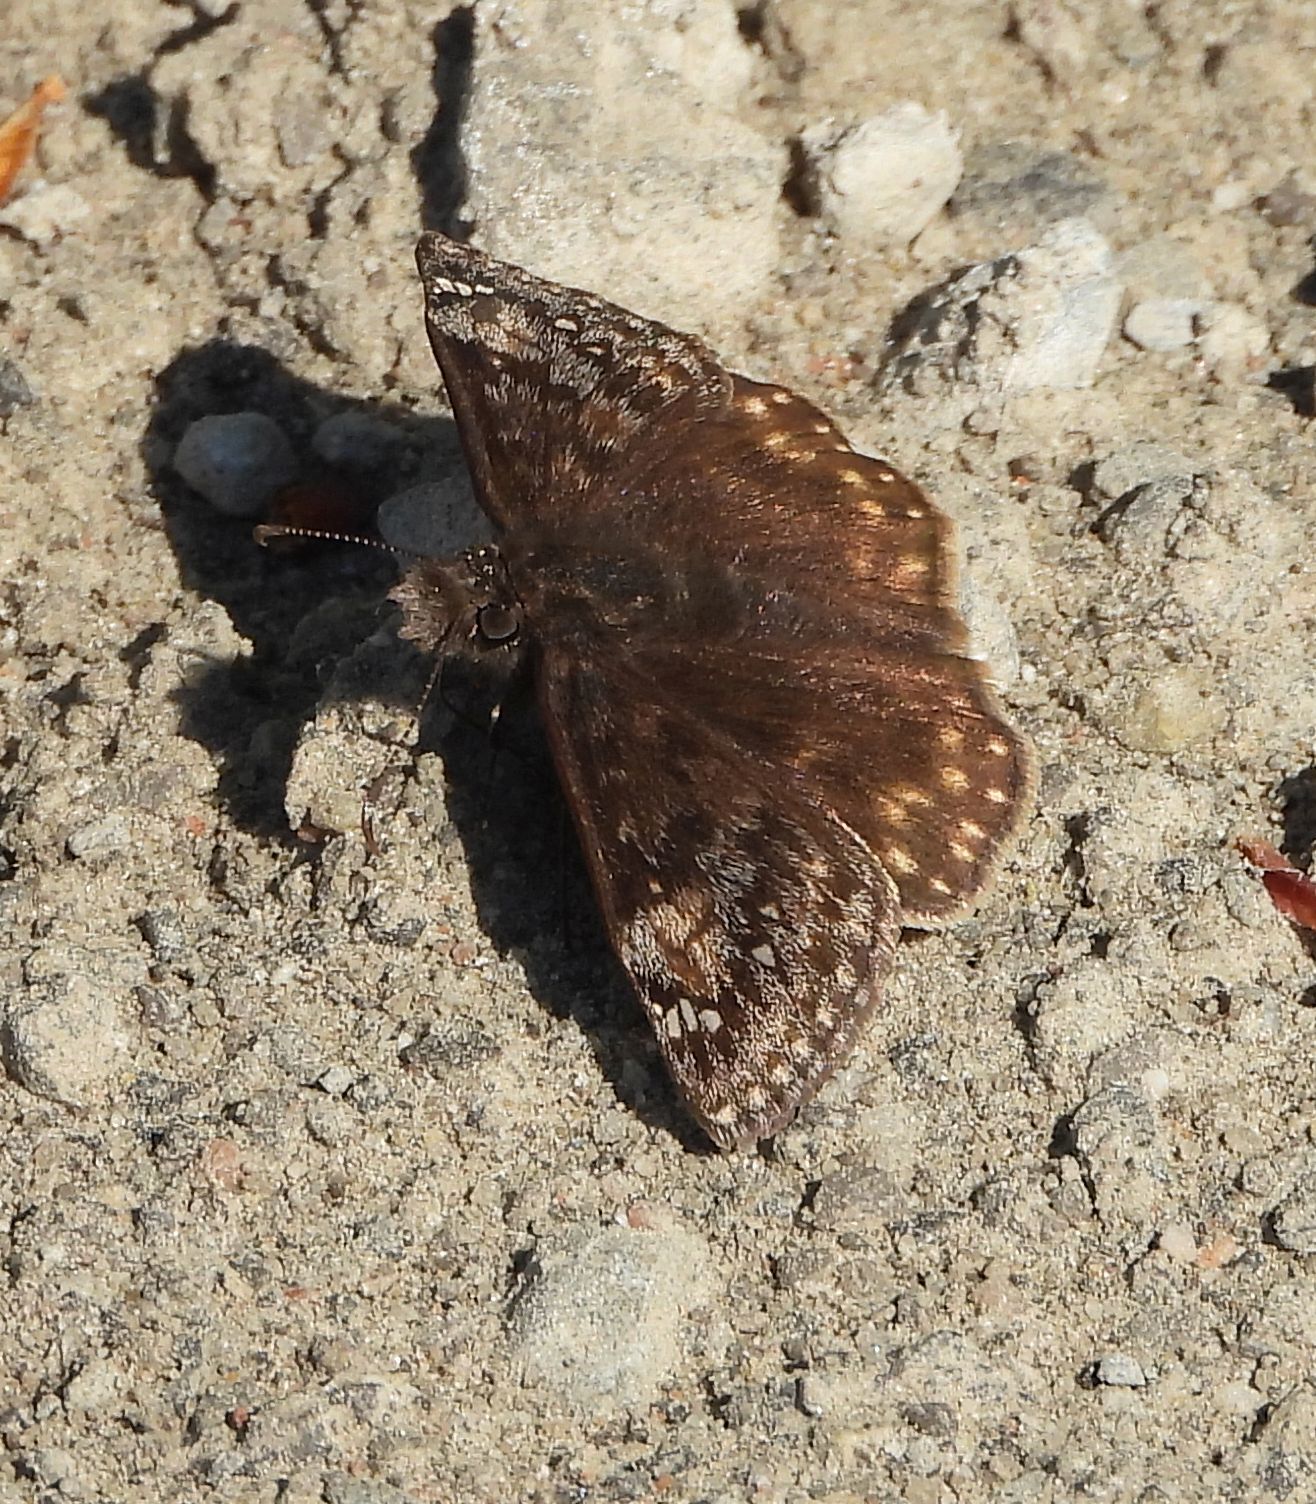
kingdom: Animalia
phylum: Arthropoda
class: Insecta
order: Lepidoptera
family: Hesperiidae
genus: Erynnis
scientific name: Erynnis juvenalis
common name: Juvenal's duskywing
